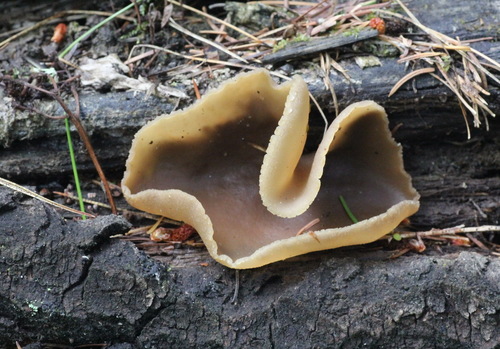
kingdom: Fungi
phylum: Ascomycota
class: Pezizomycetes
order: Pezizales
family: Pezizaceae
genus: Peziza
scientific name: Peziza varia
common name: Layered cup
